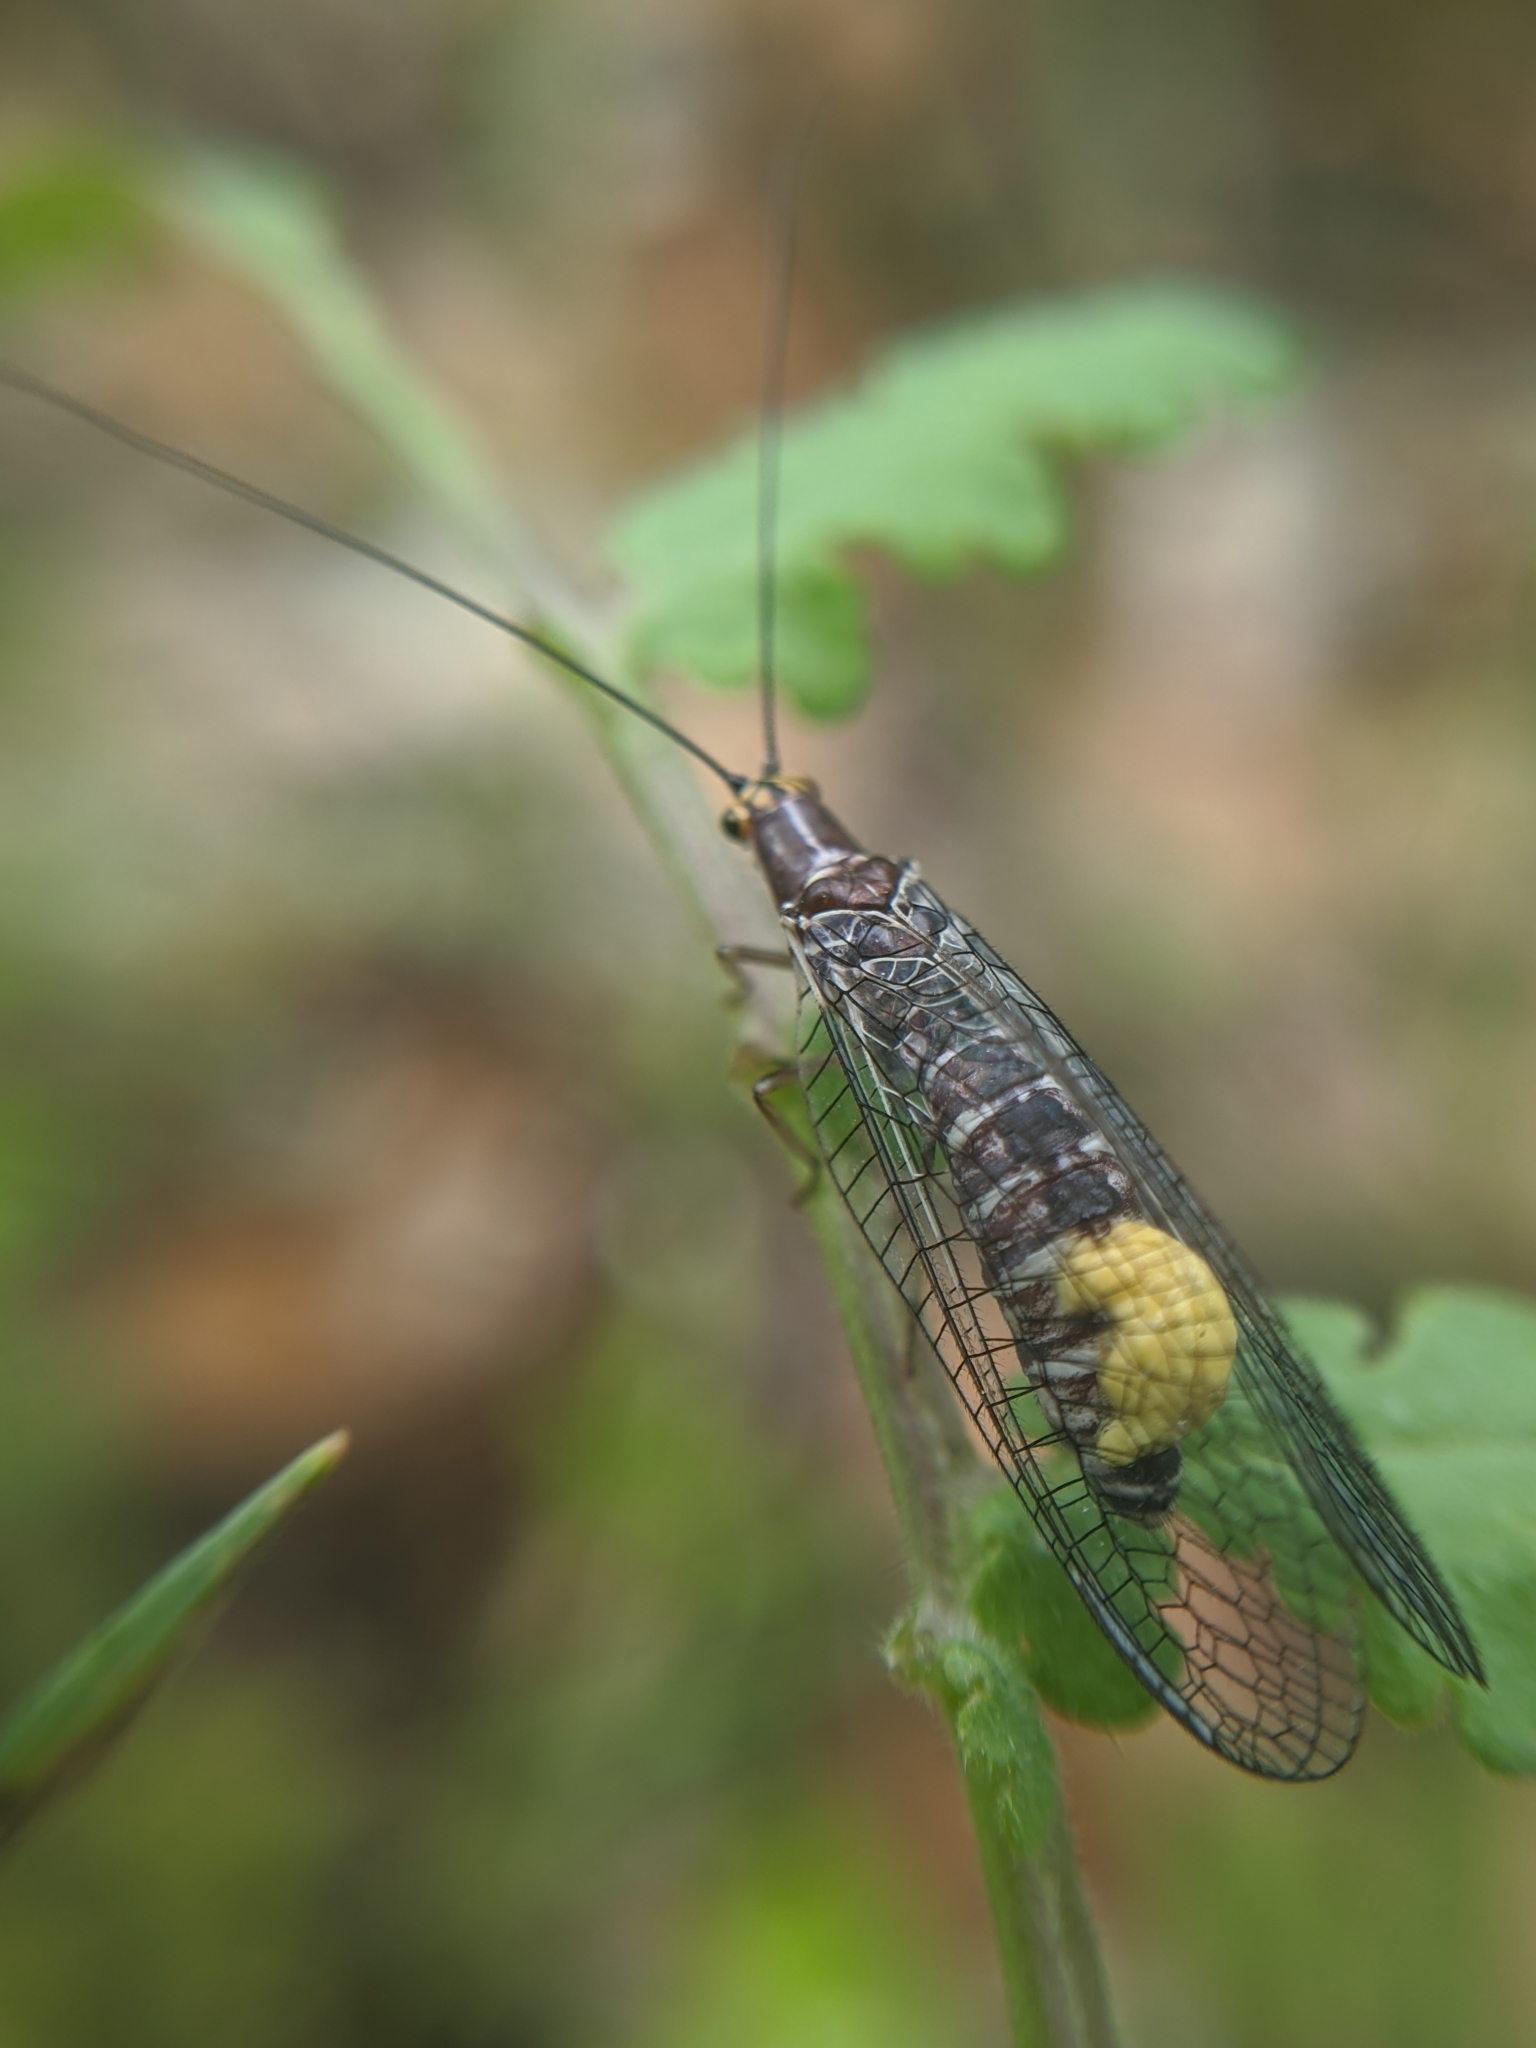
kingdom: Animalia
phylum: Arthropoda
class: Insecta
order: Neuroptera
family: Chrysopidae
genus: Nothochrysa
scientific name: Nothochrysa californica
